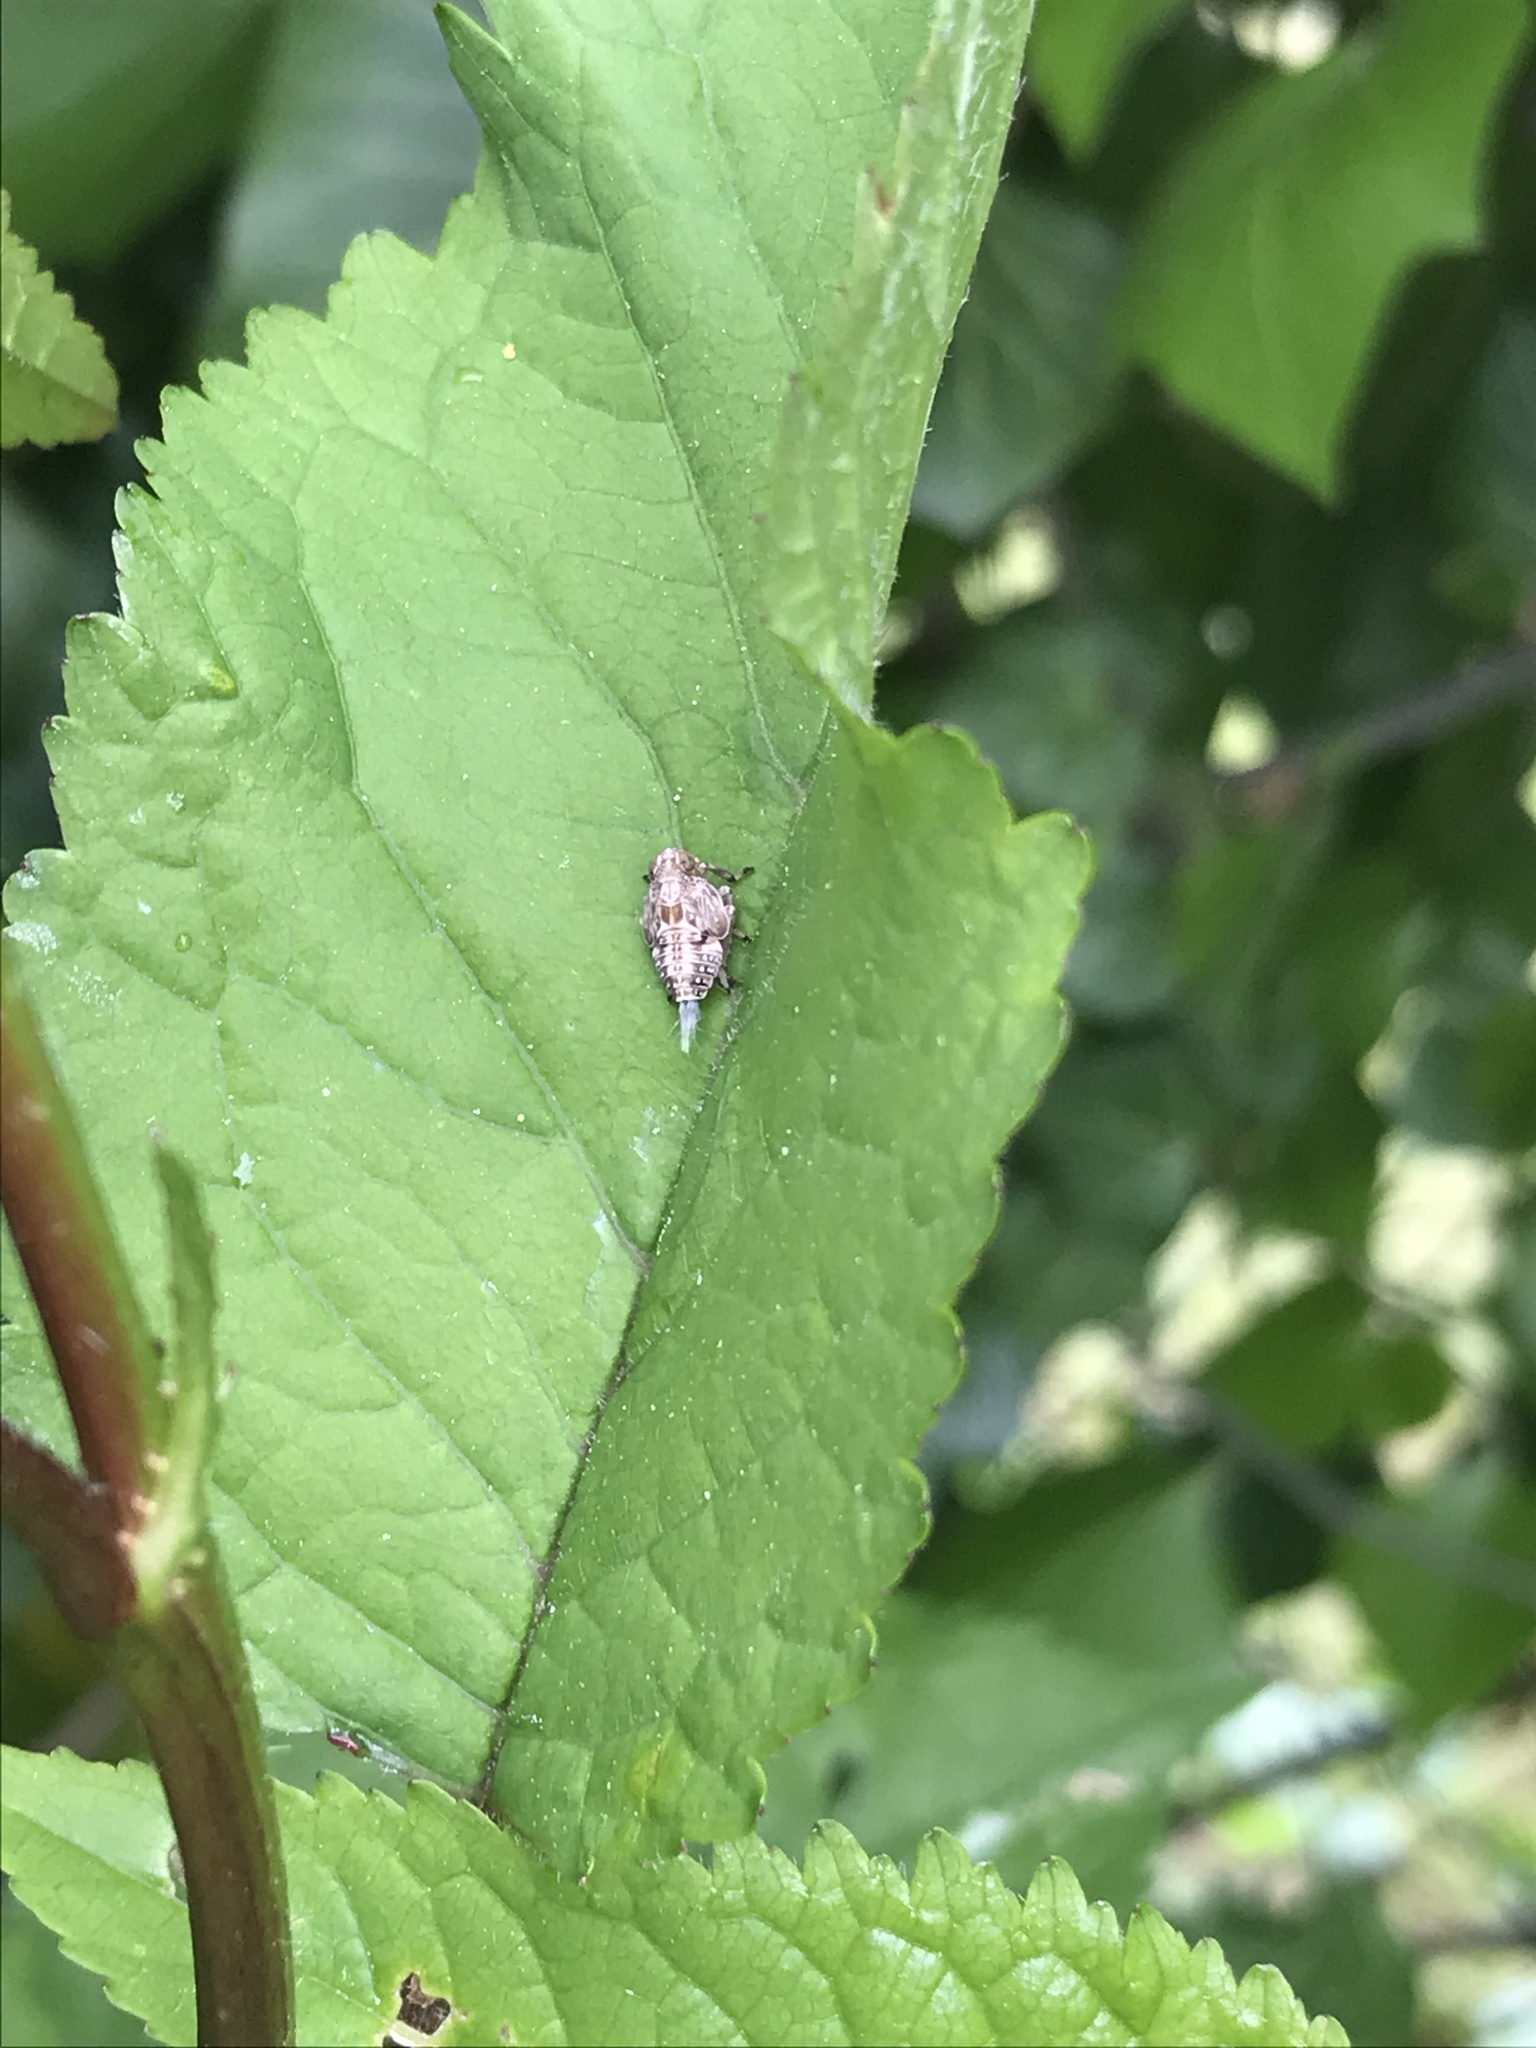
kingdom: Animalia
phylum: Arthropoda
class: Insecta
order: Hemiptera
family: Issidae
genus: Issus
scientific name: Issus coleoptratus
